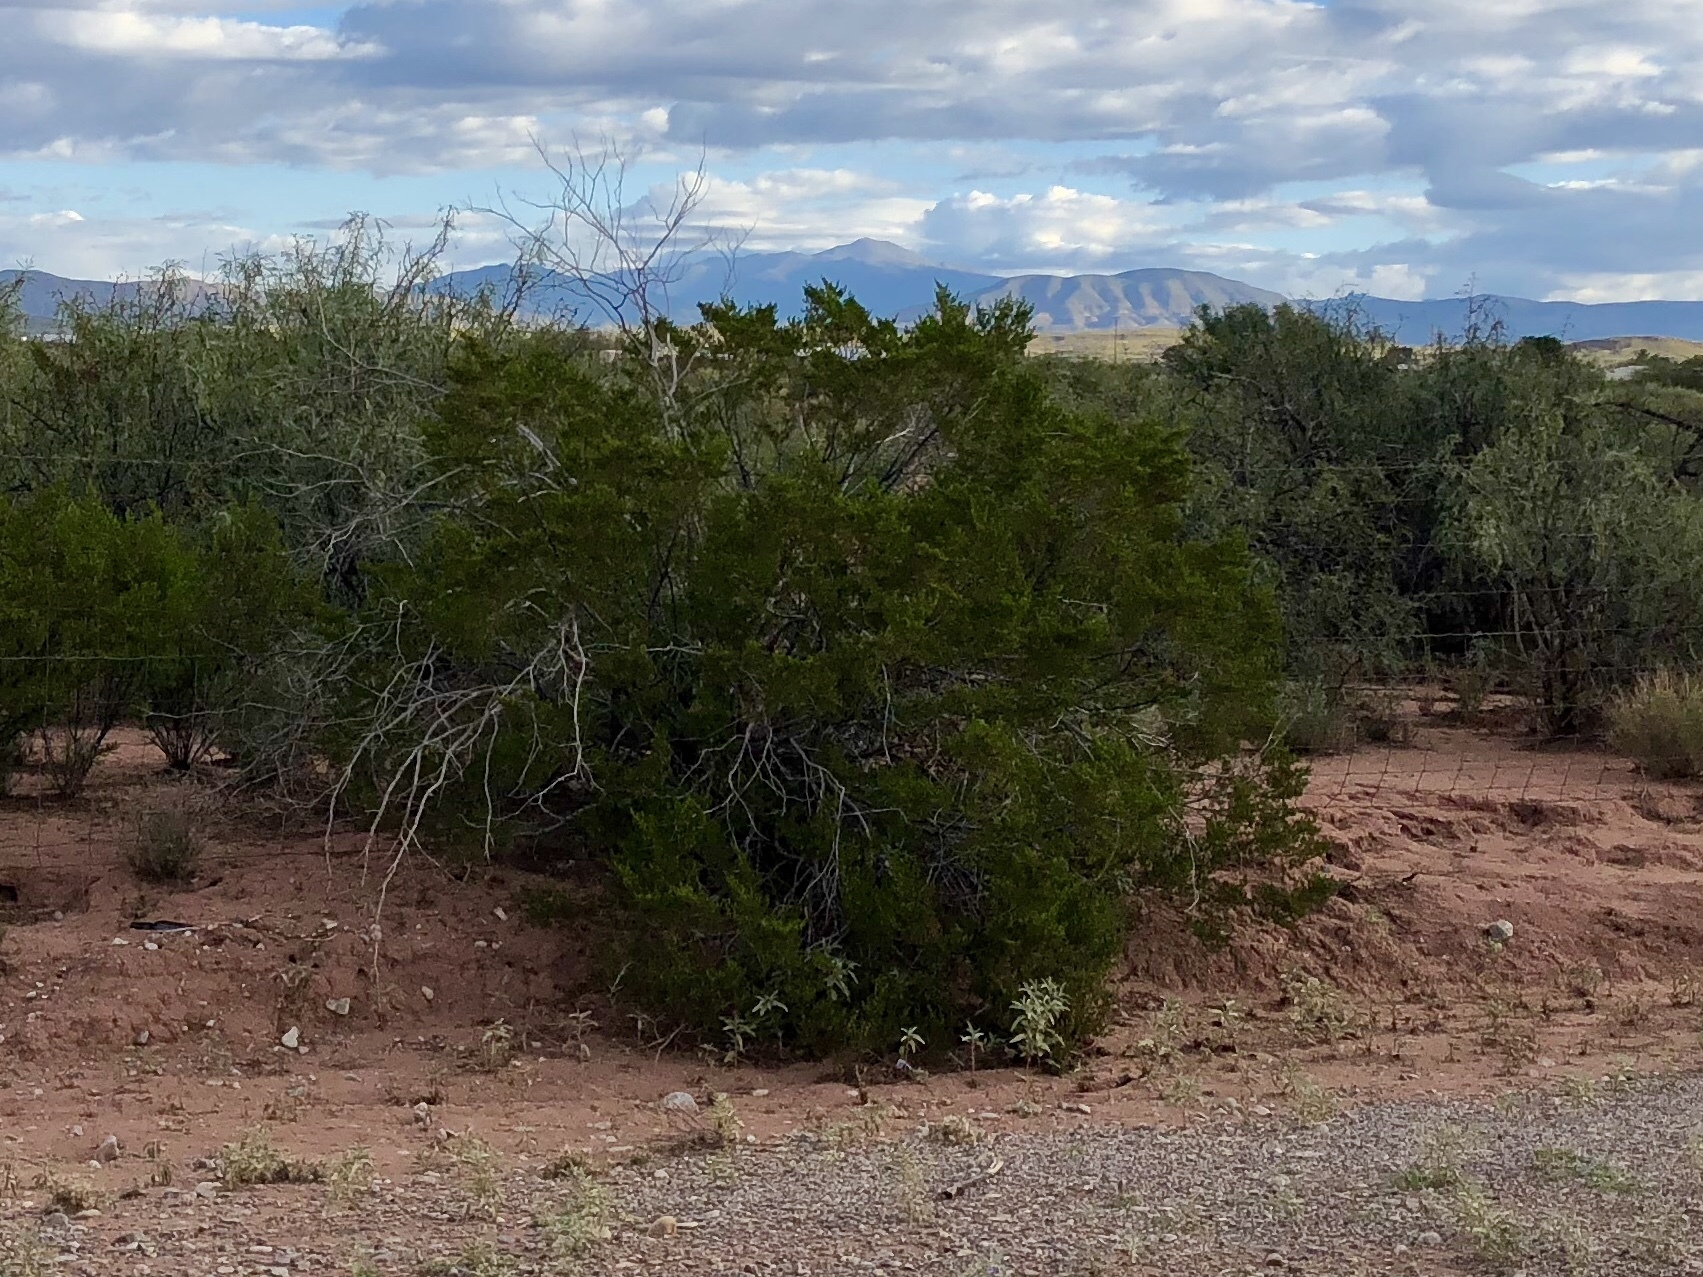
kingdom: Plantae
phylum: Tracheophyta
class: Magnoliopsida
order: Zygophyllales
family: Zygophyllaceae
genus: Larrea
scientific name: Larrea tridentata
